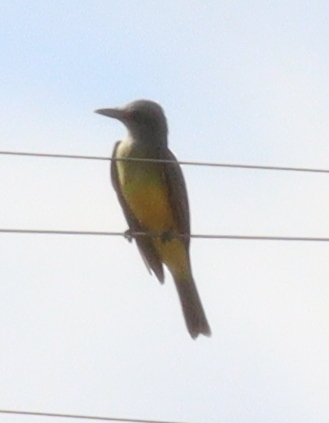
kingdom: Animalia
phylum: Chordata
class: Aves
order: Passeriformes
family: Tyrannidae
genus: Tyrannus
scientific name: Tyrannus melancholicus
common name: Tropical kingbird
